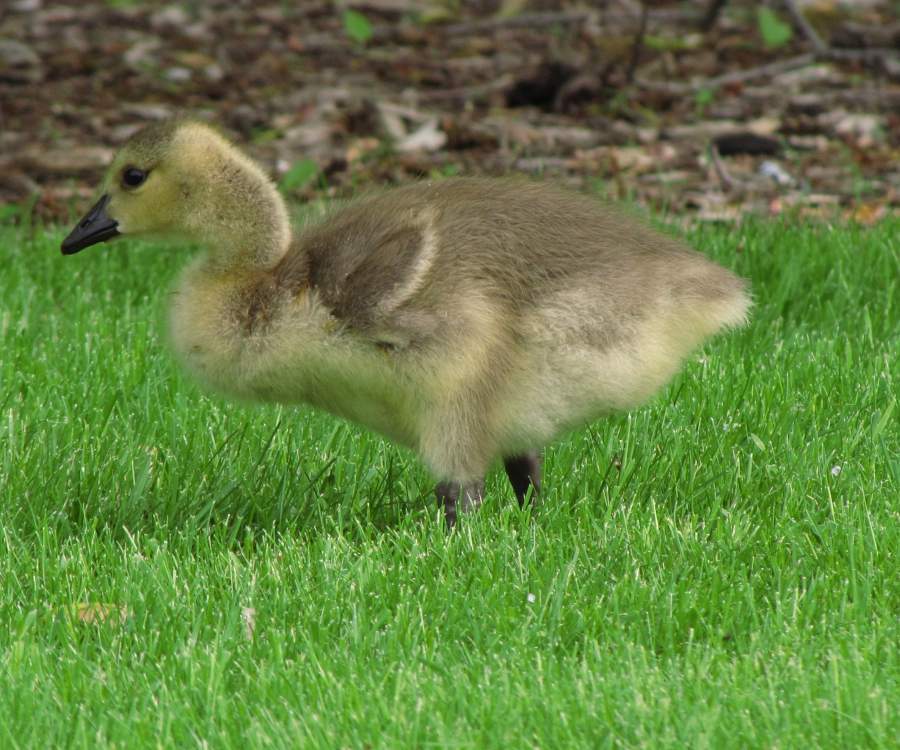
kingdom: Animalia
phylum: Chordata
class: Aves
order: Anseriformes
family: Anatidae
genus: Branta
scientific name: Branta canadensis
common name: Canada goose
